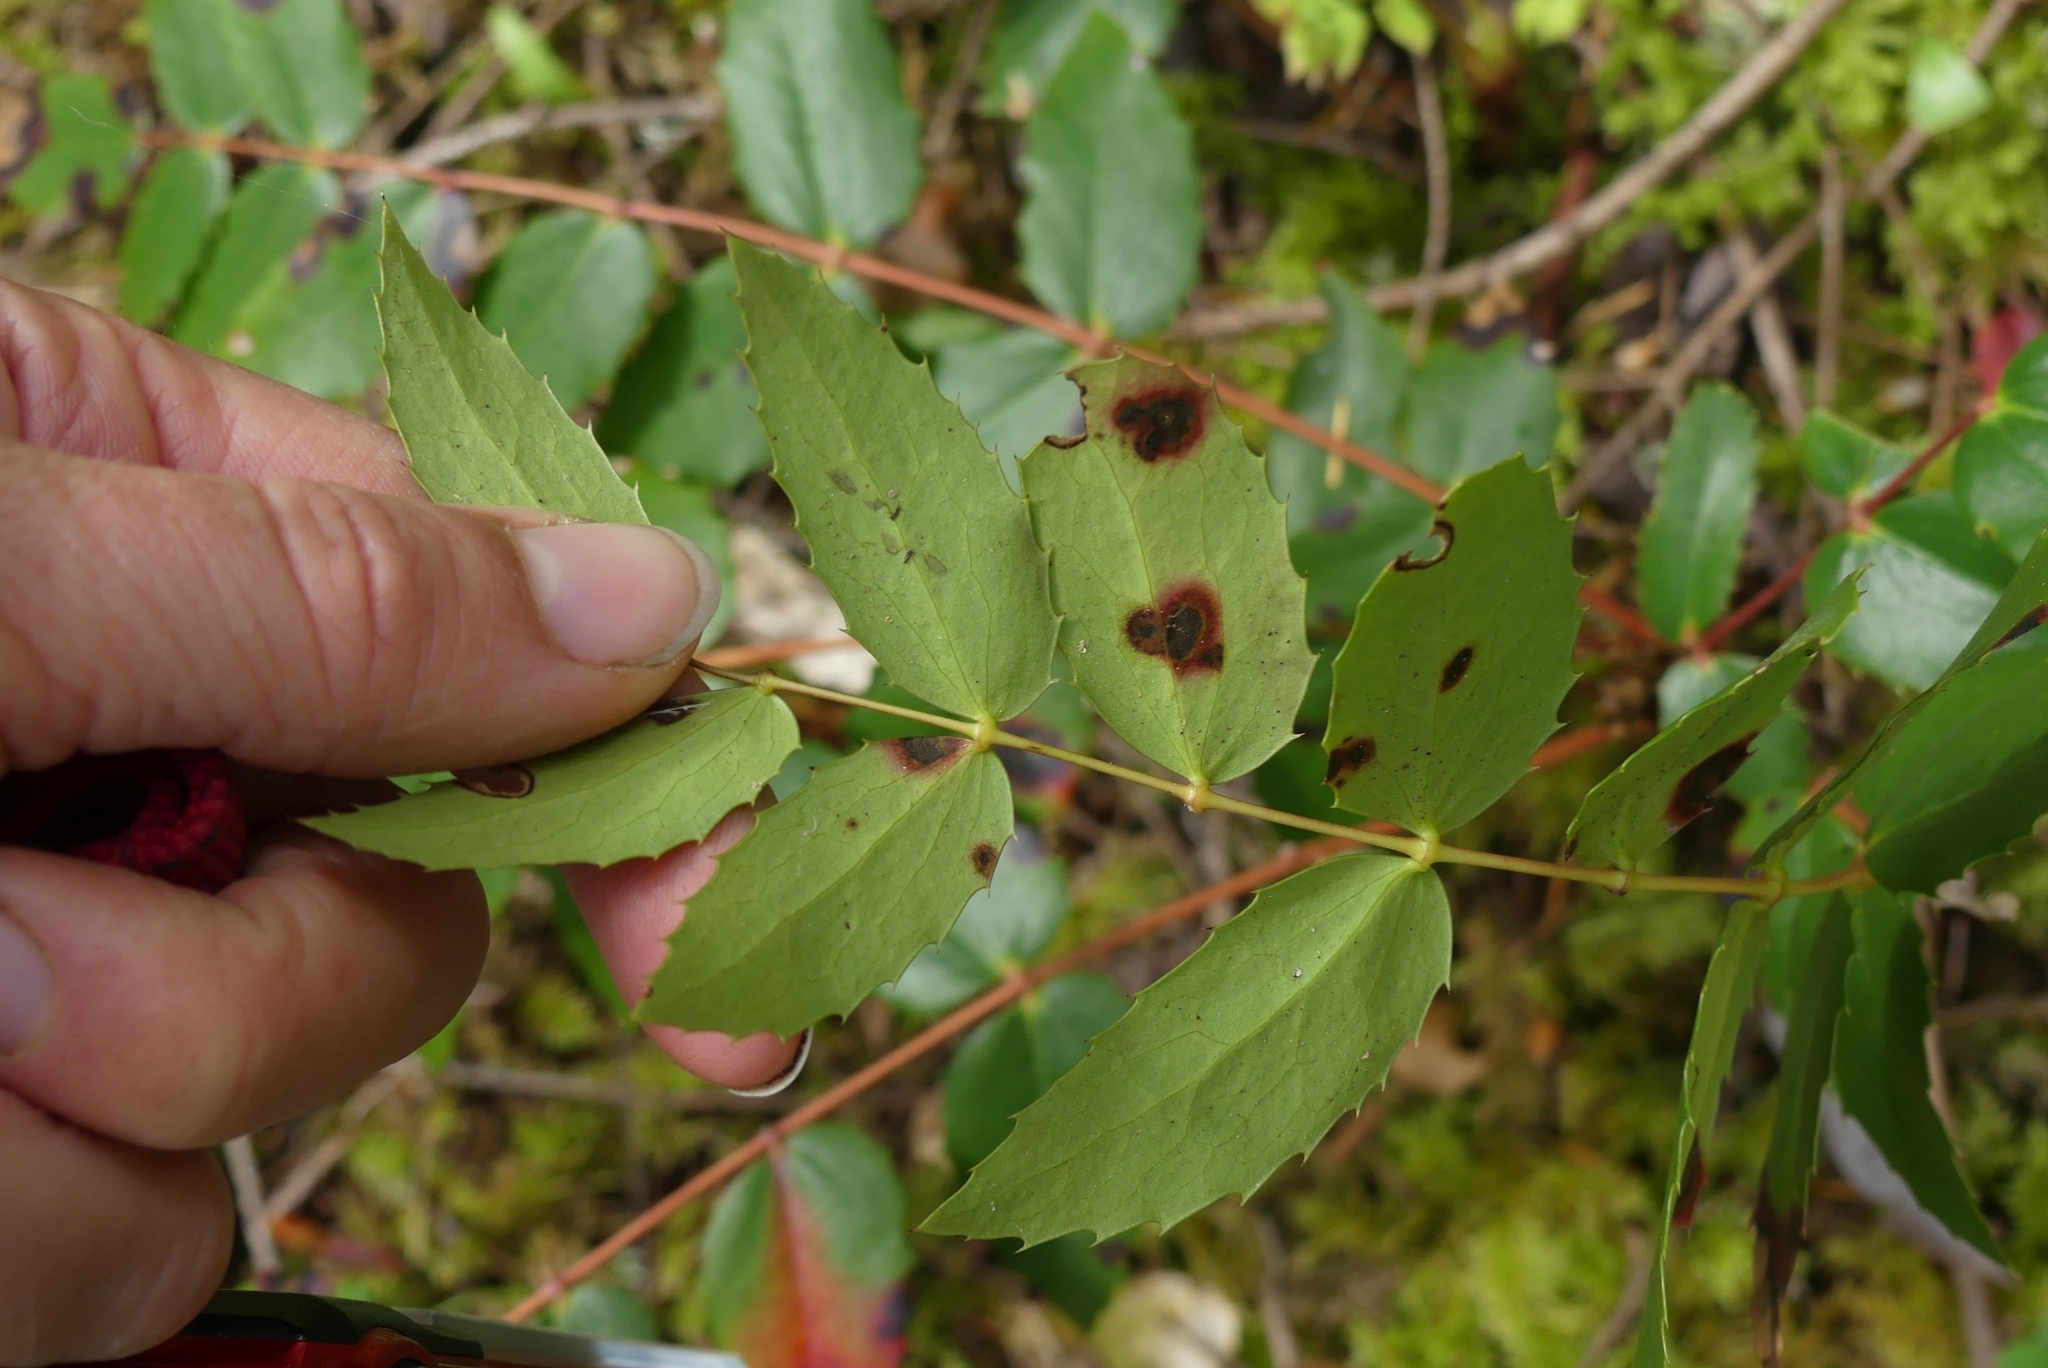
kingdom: Plantae
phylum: Tracheophyta
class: Magnoliopsida
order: Ranunculales
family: Berberidaceae
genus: Mahonia
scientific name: Mahonia nervosa
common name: Cascade oregon-grape
